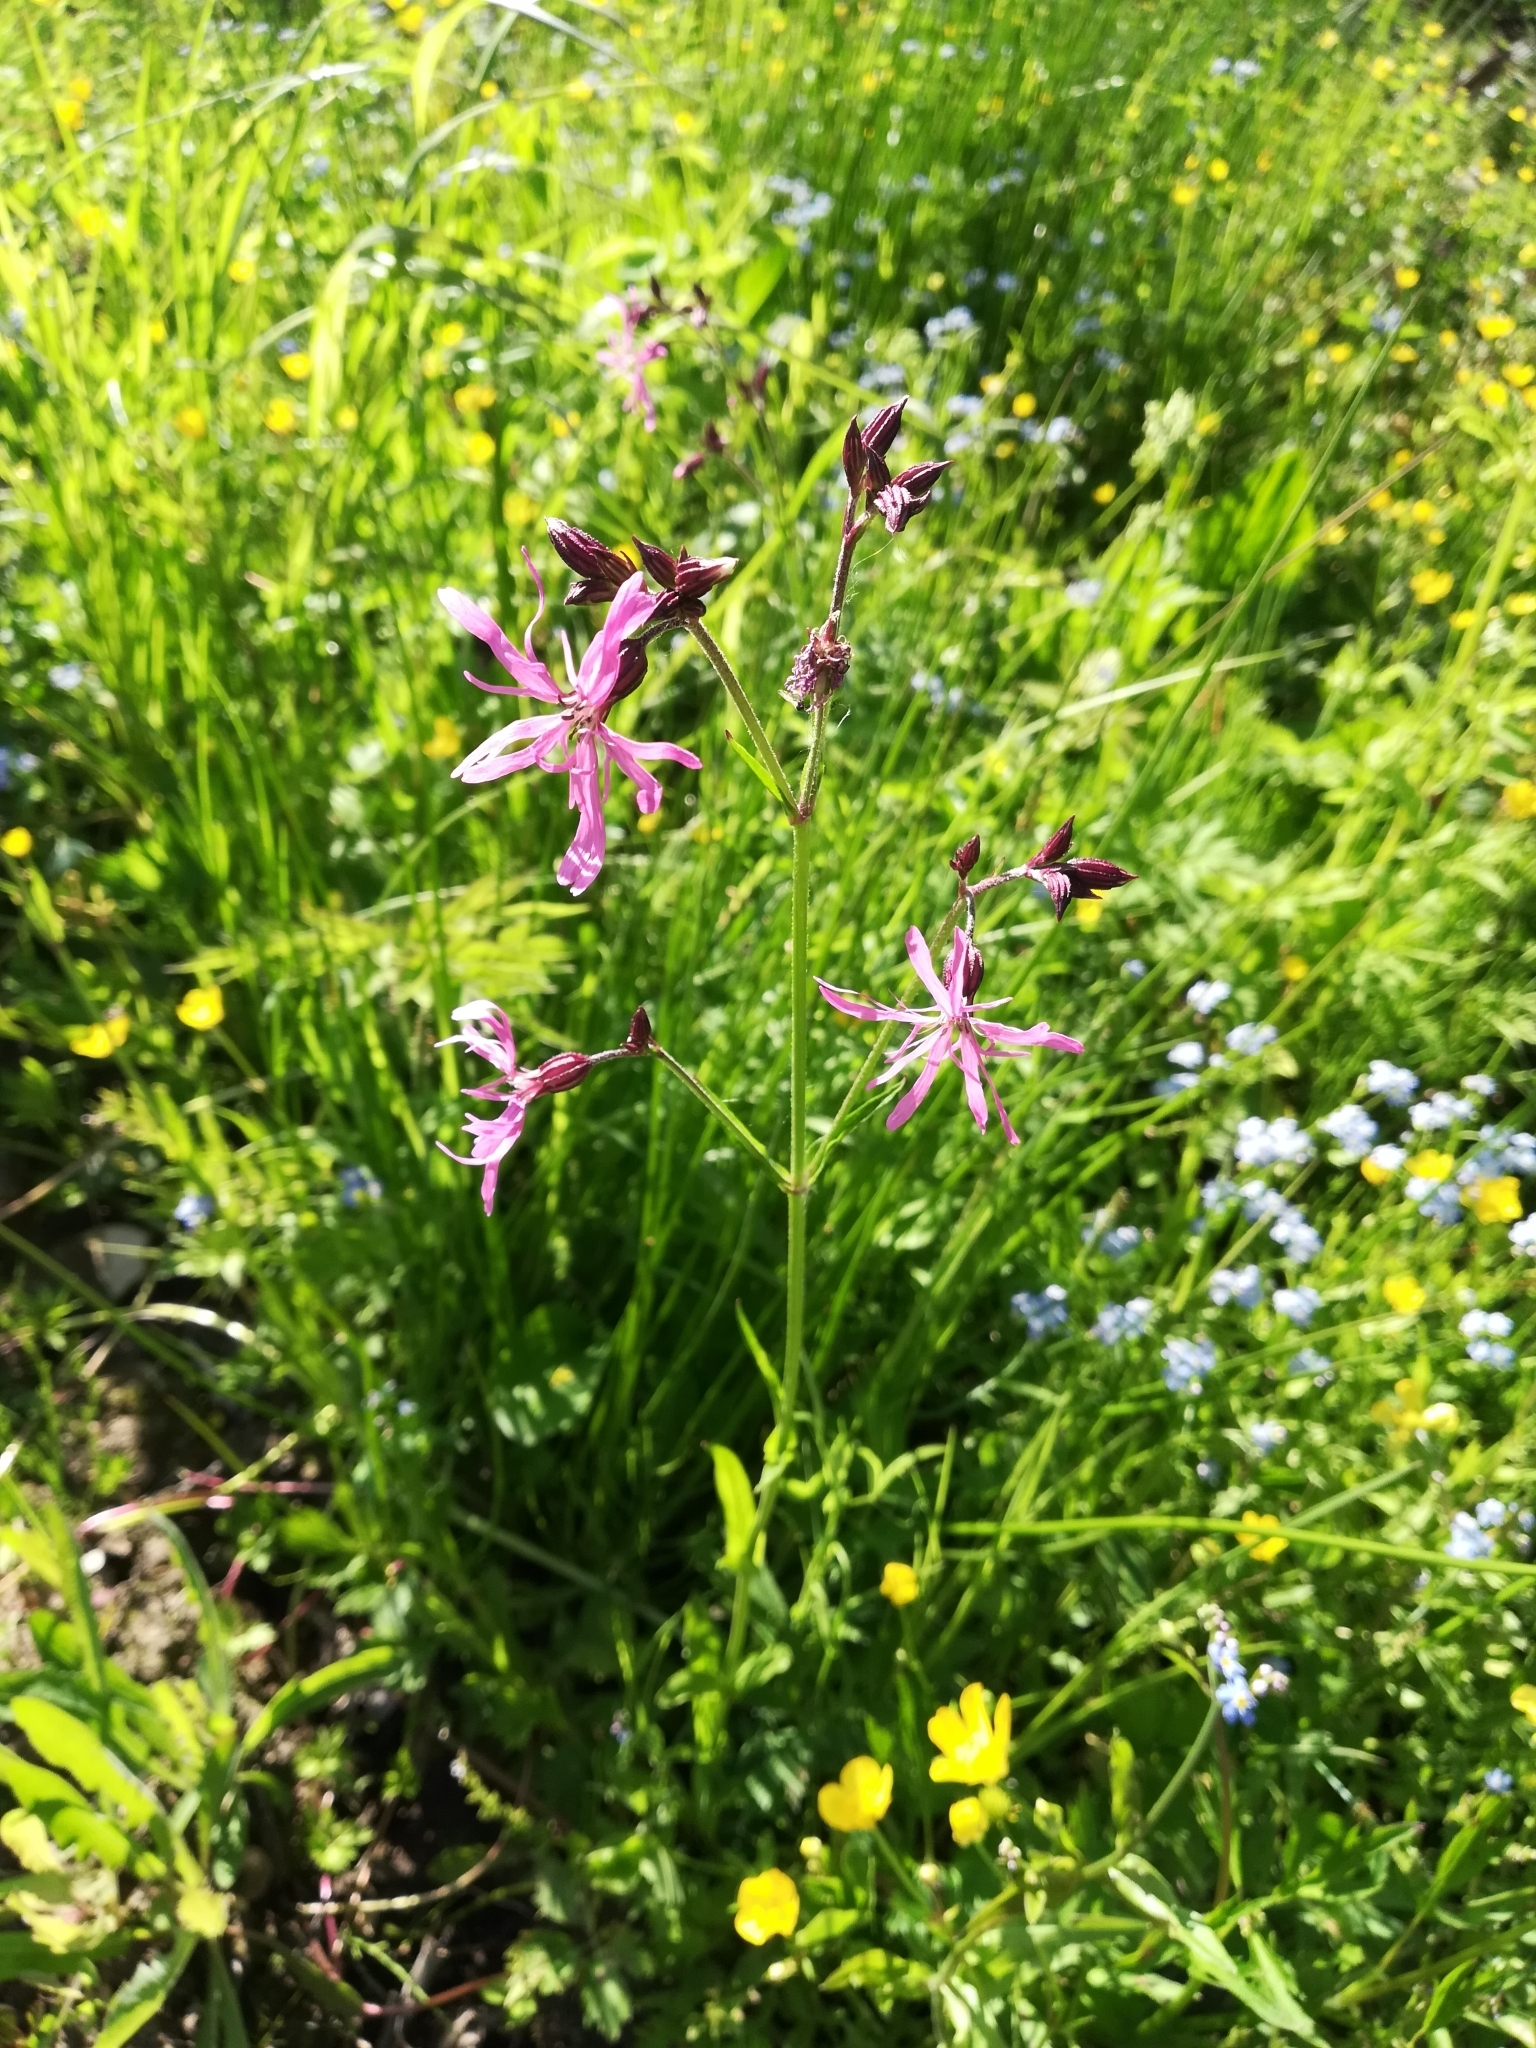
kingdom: Plantae
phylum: Tracheophyta
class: Magnoliopsida
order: Caryophyllales
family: Caryophyllaceae
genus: Silene
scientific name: Silene flos-cuculi
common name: Ragged-robin
